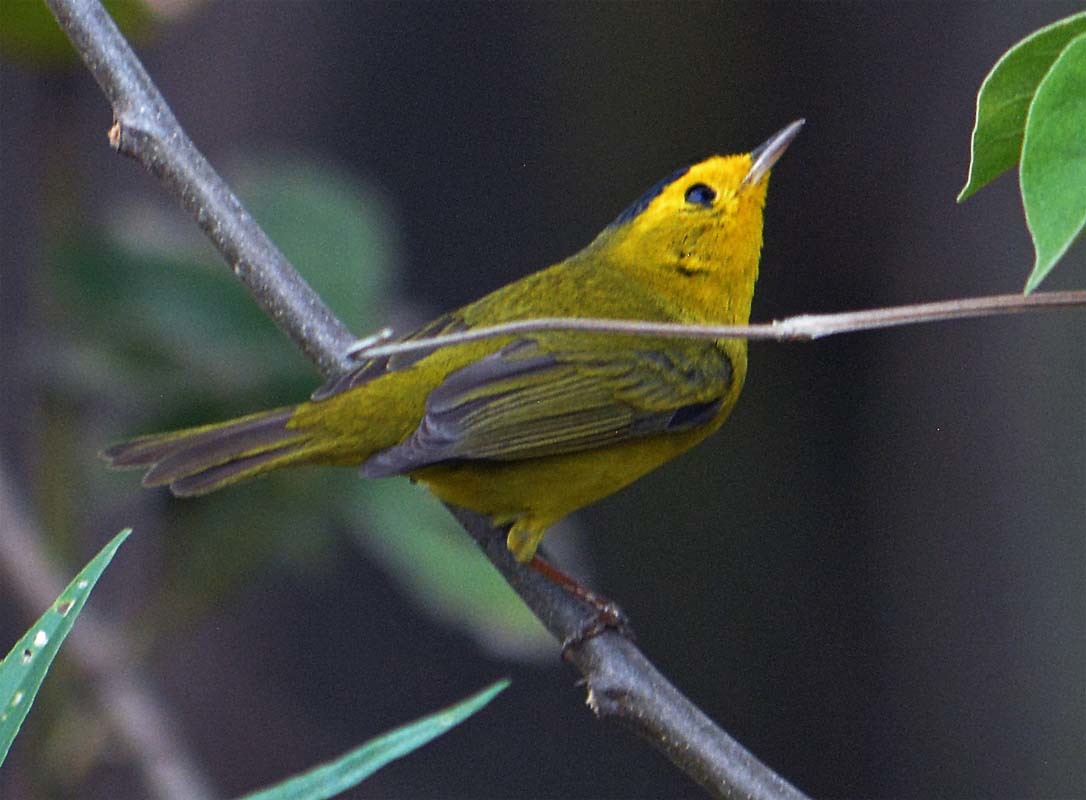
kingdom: Animalia
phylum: Chordata
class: Aves
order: Passeriformes
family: Parulidae
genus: Cardellina
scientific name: Cardellina pusilla
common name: Wilson's warbler
